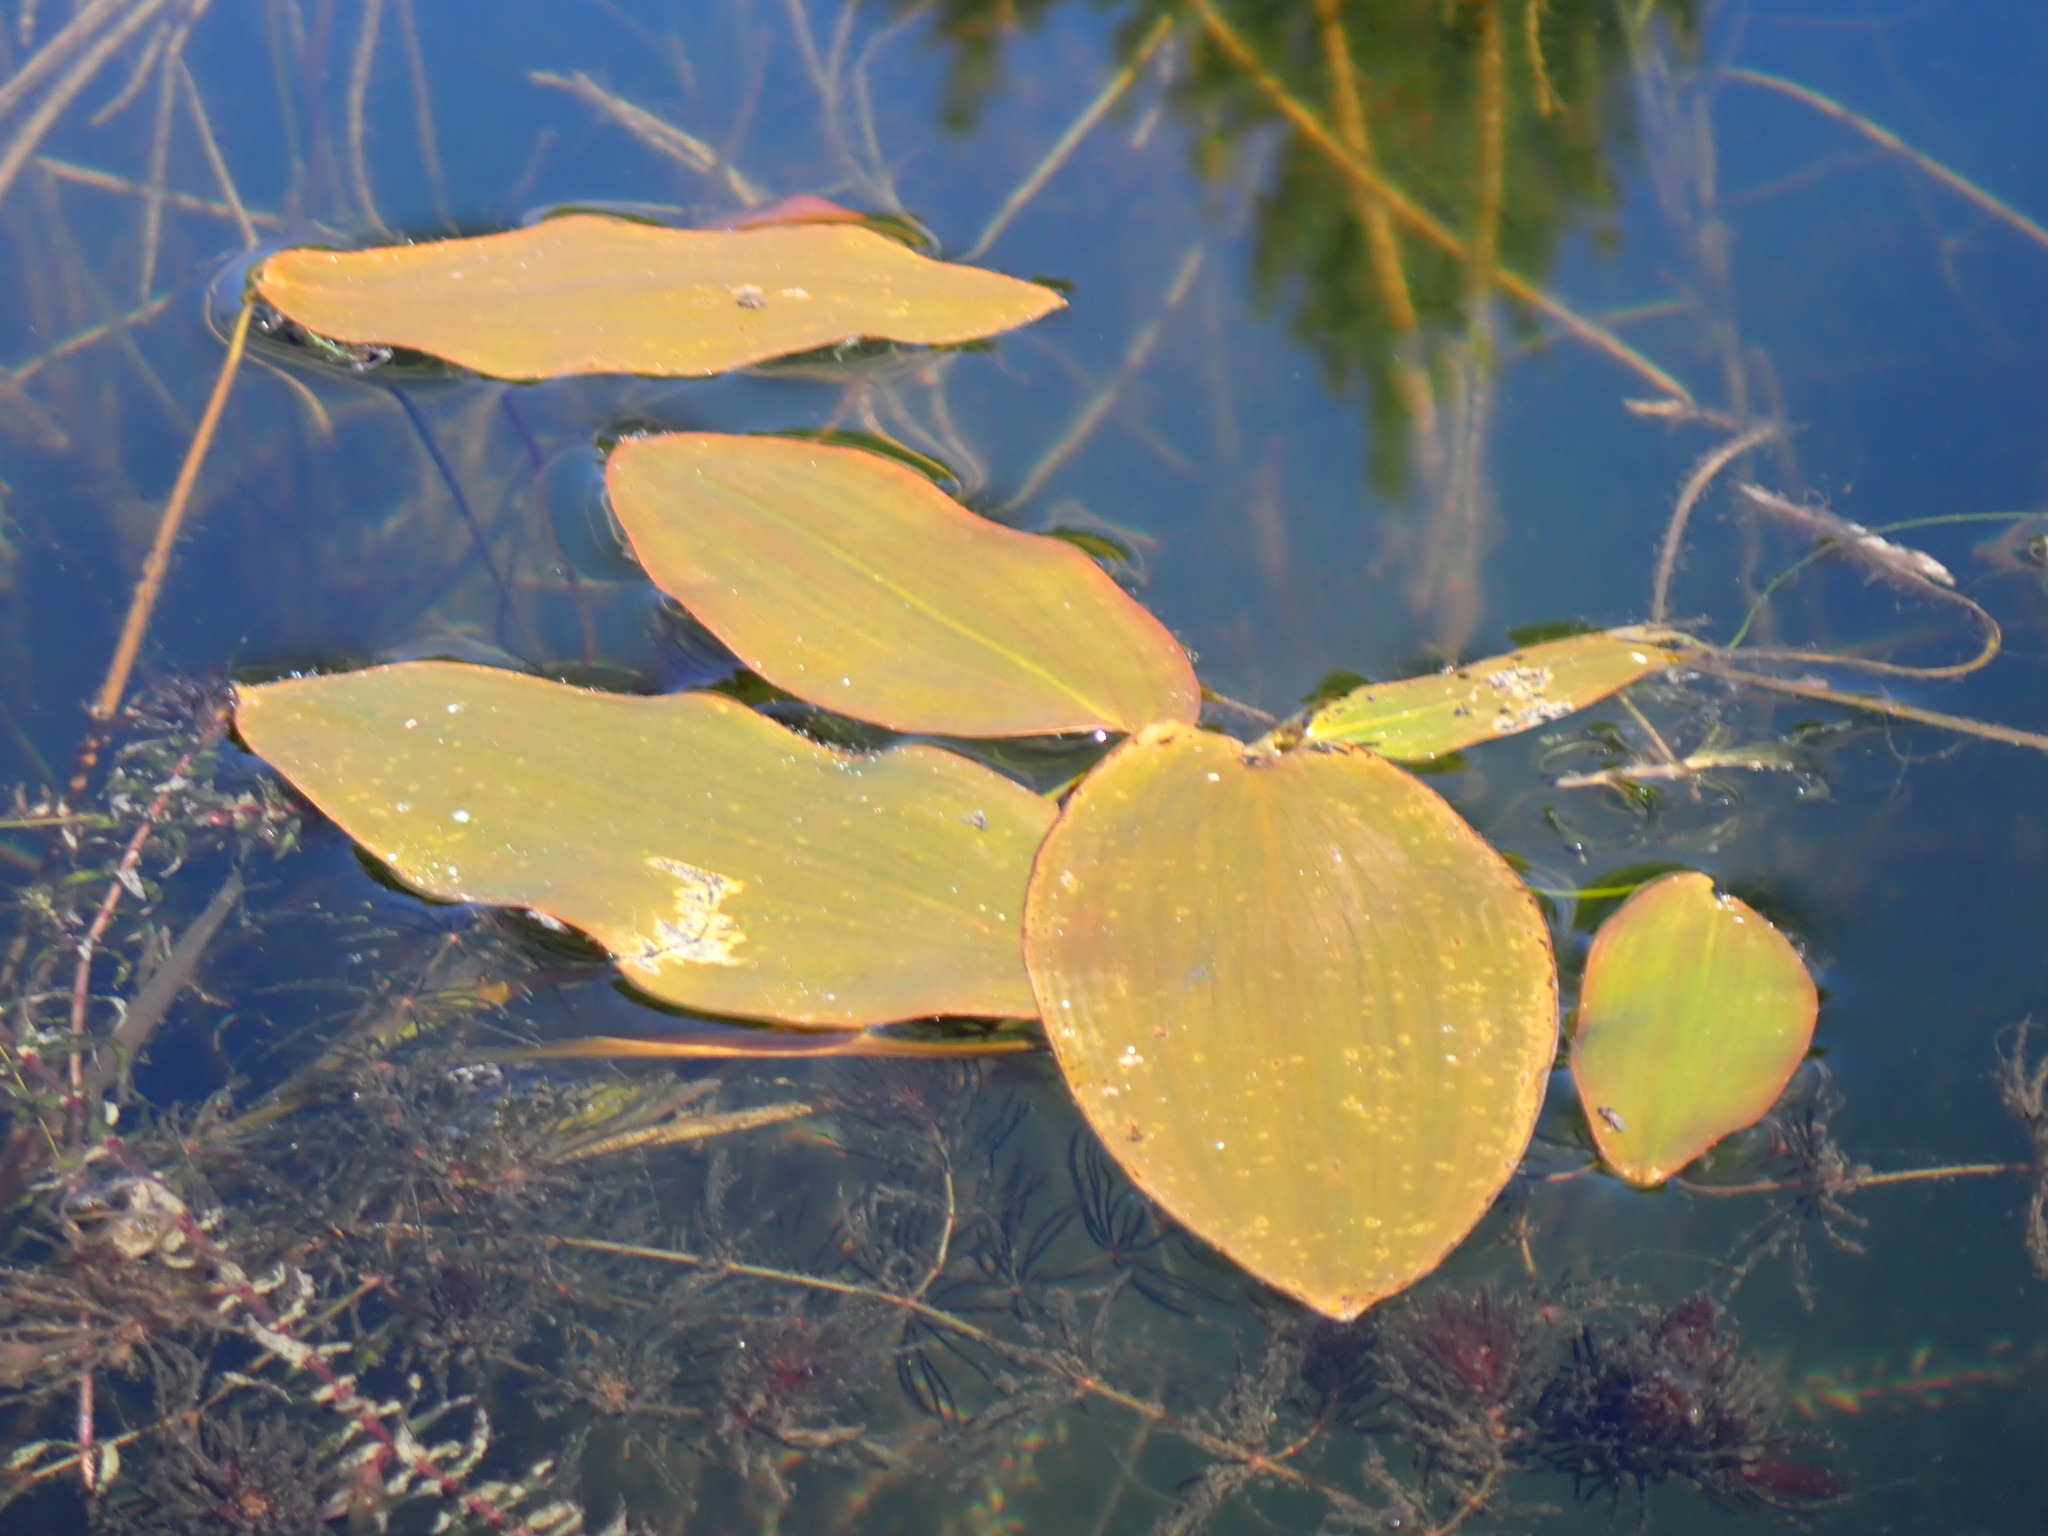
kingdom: Plantae
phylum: Tracheophyta
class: Liliopsida
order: Alismatales
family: Potamogetonaceae
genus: Potamogeton
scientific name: Potamogeton natans
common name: Broad-leaved pondweed
